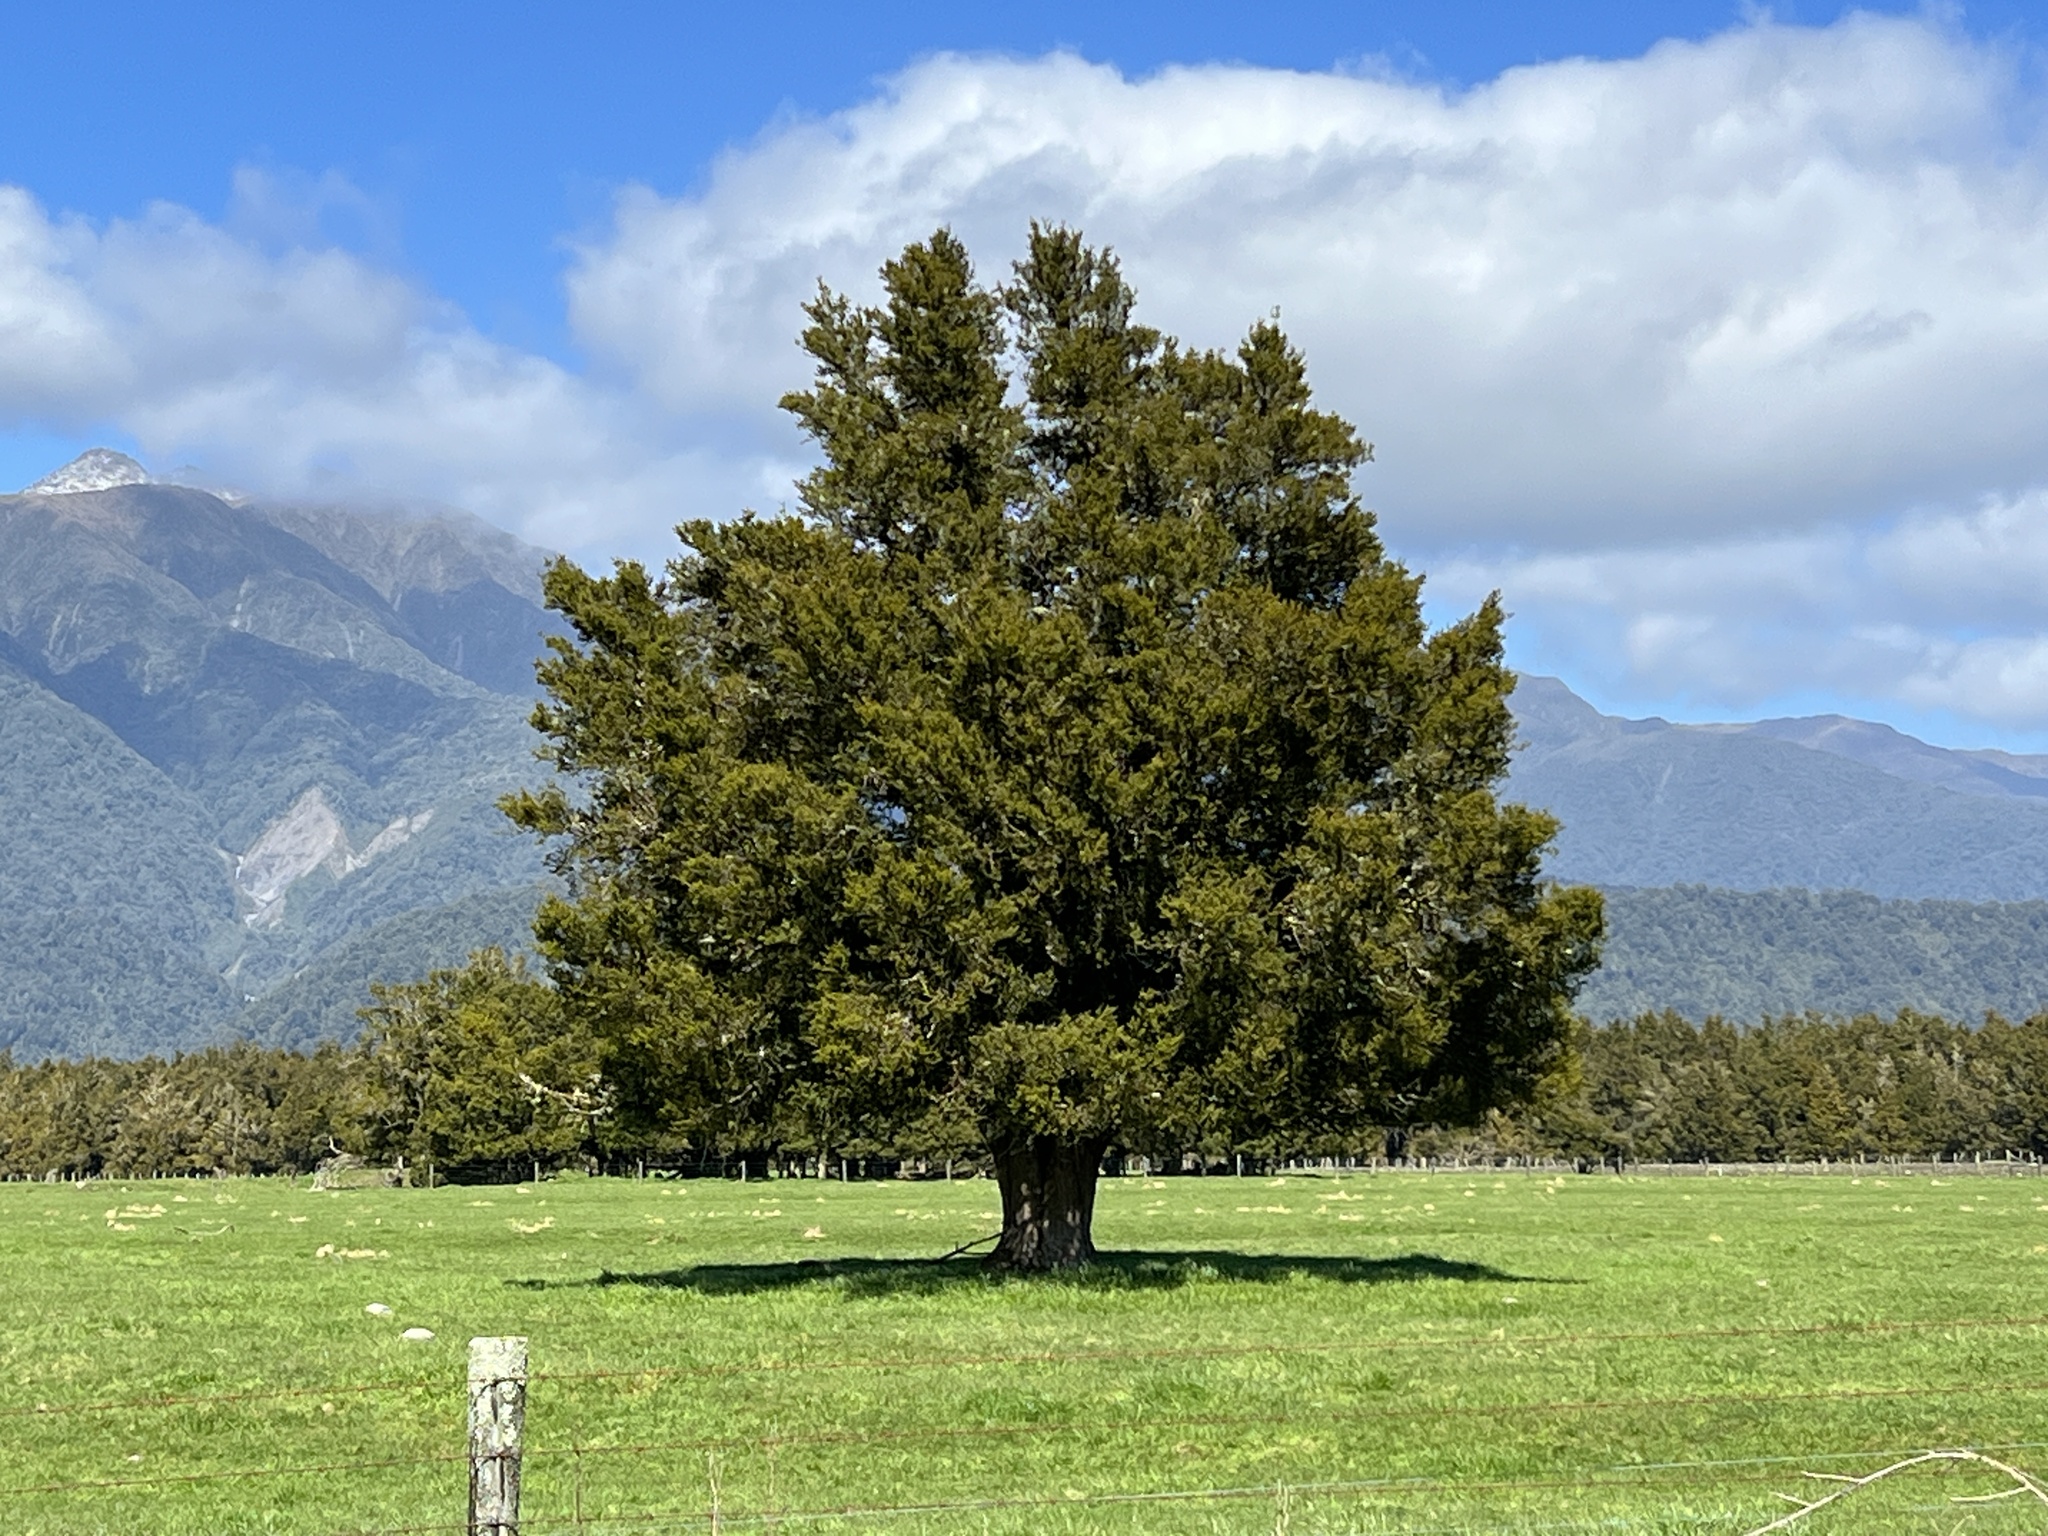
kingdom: Plantae
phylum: Tracheophyta
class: Pinopsida
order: Pinales
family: Podocarpaceae
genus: Podocarpus
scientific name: Podocarpus totara
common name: Totara
